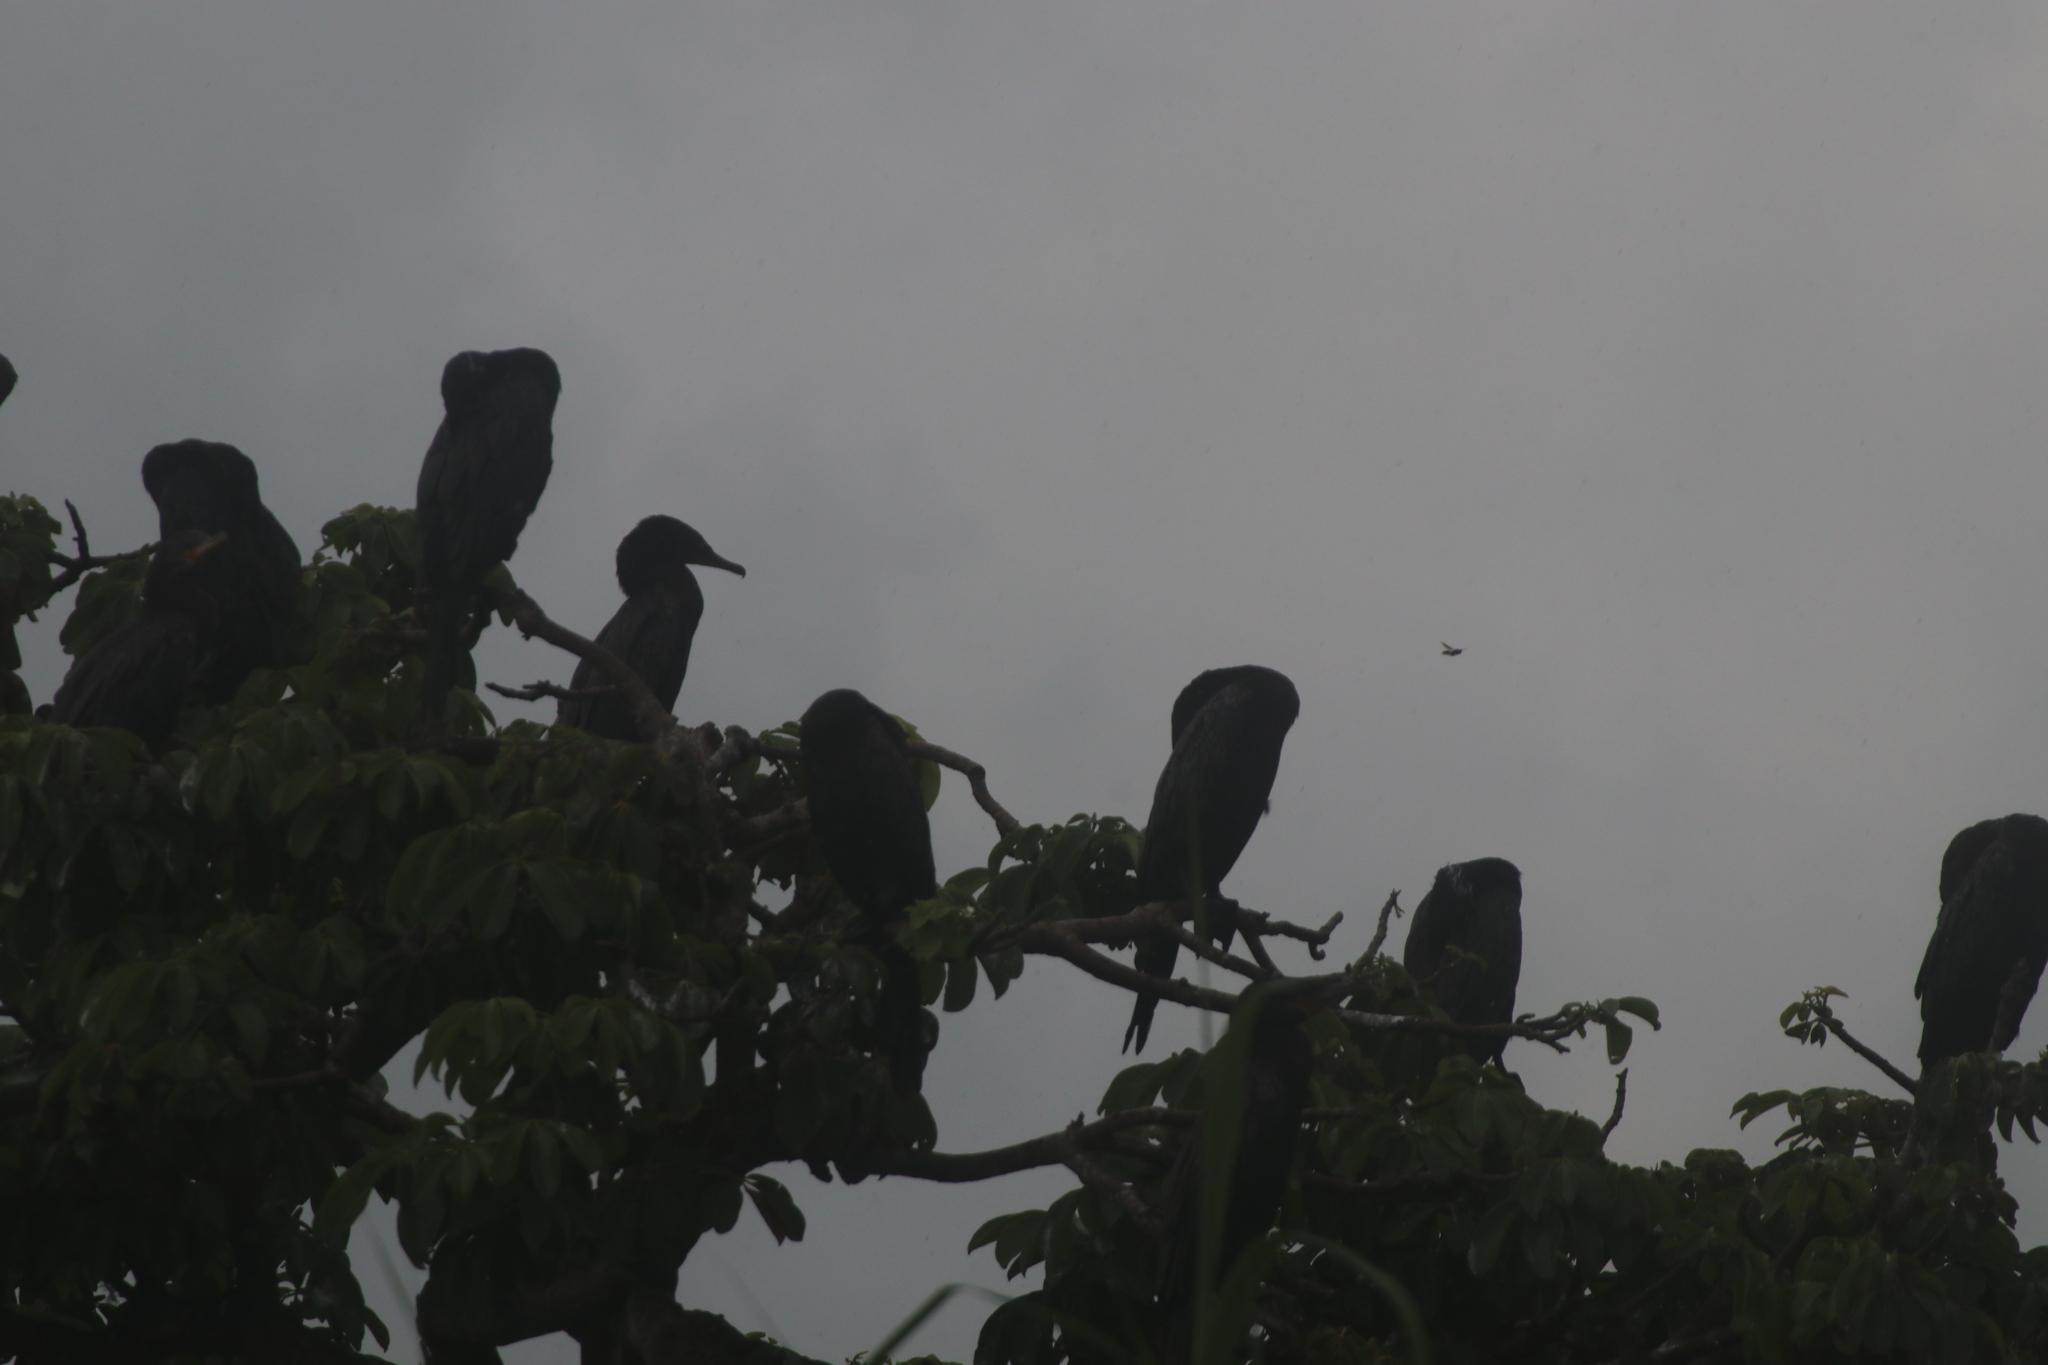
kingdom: Animalia
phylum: Chordata
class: Aves
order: Suliformes
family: Phalacrocoracidae
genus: Phalacrocorax
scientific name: Phalacrocorax brasilianus
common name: Neotropic cormorant
